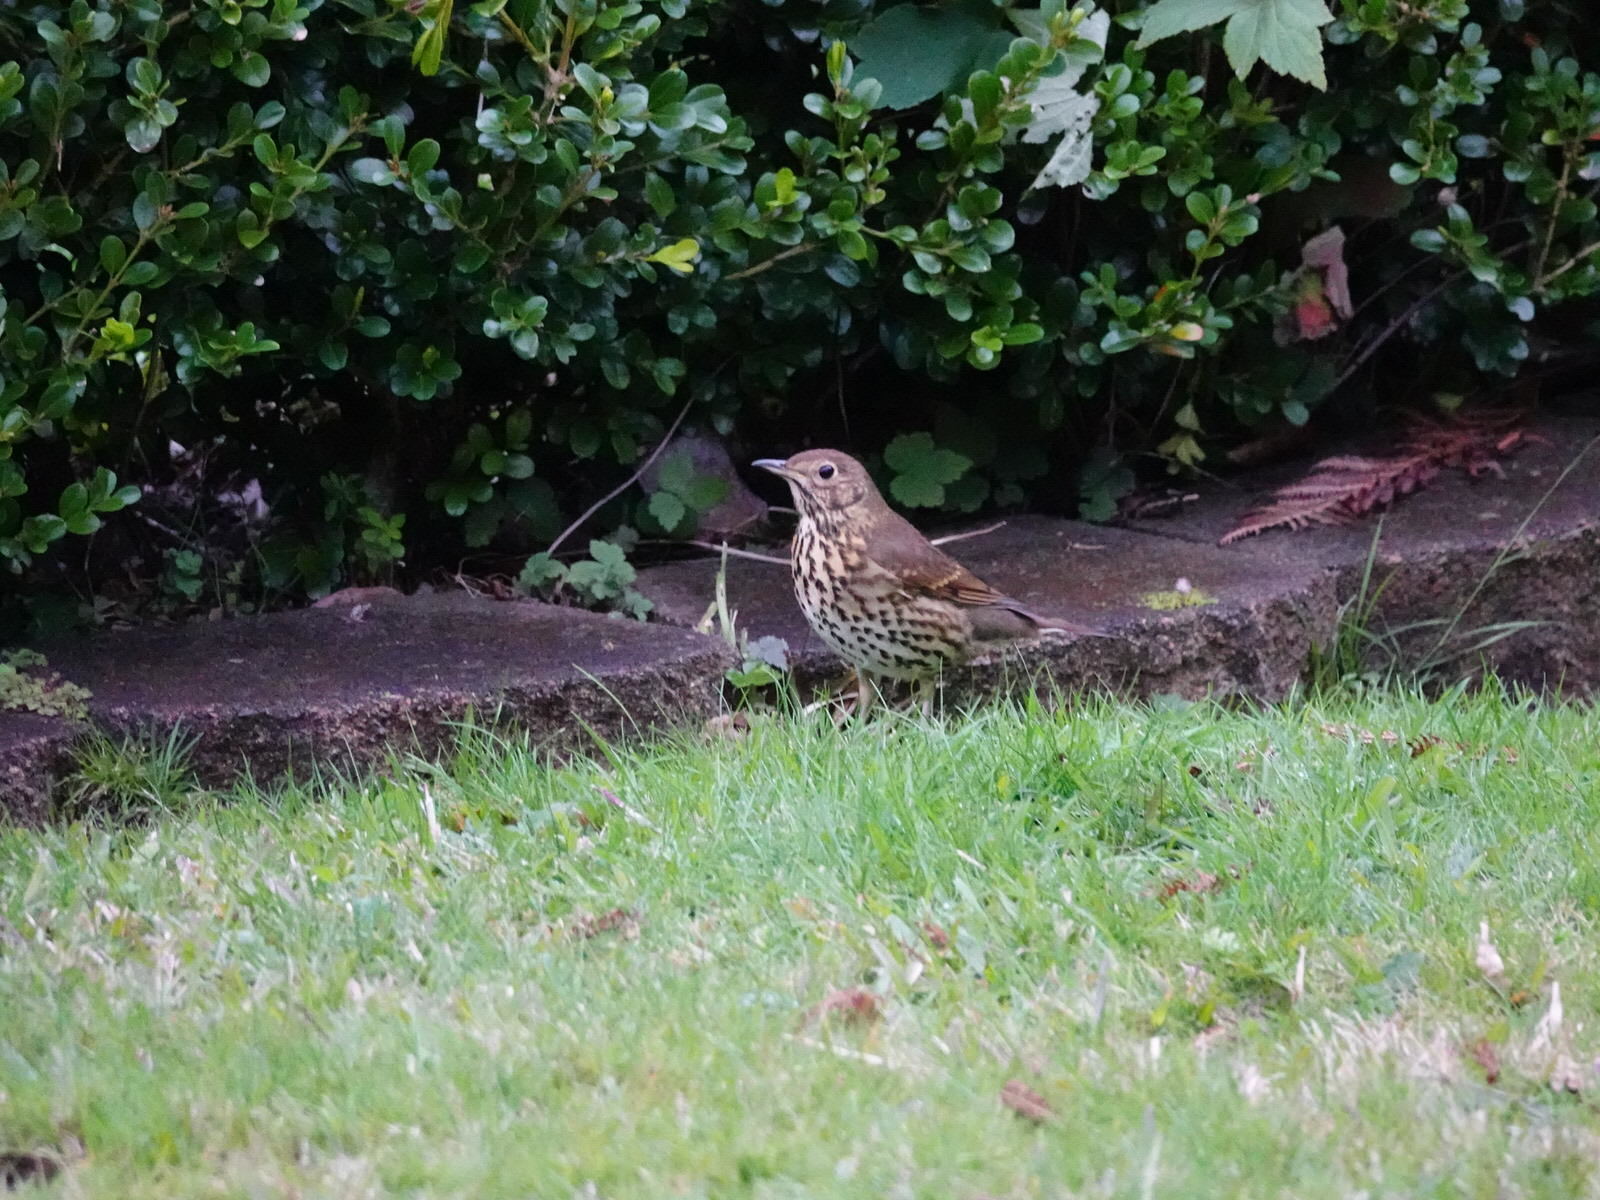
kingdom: Animalia
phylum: Chordata
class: Aves
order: Passeriformes
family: Turdidae
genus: Turdus
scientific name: Turdus philomelos
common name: Song thrush
